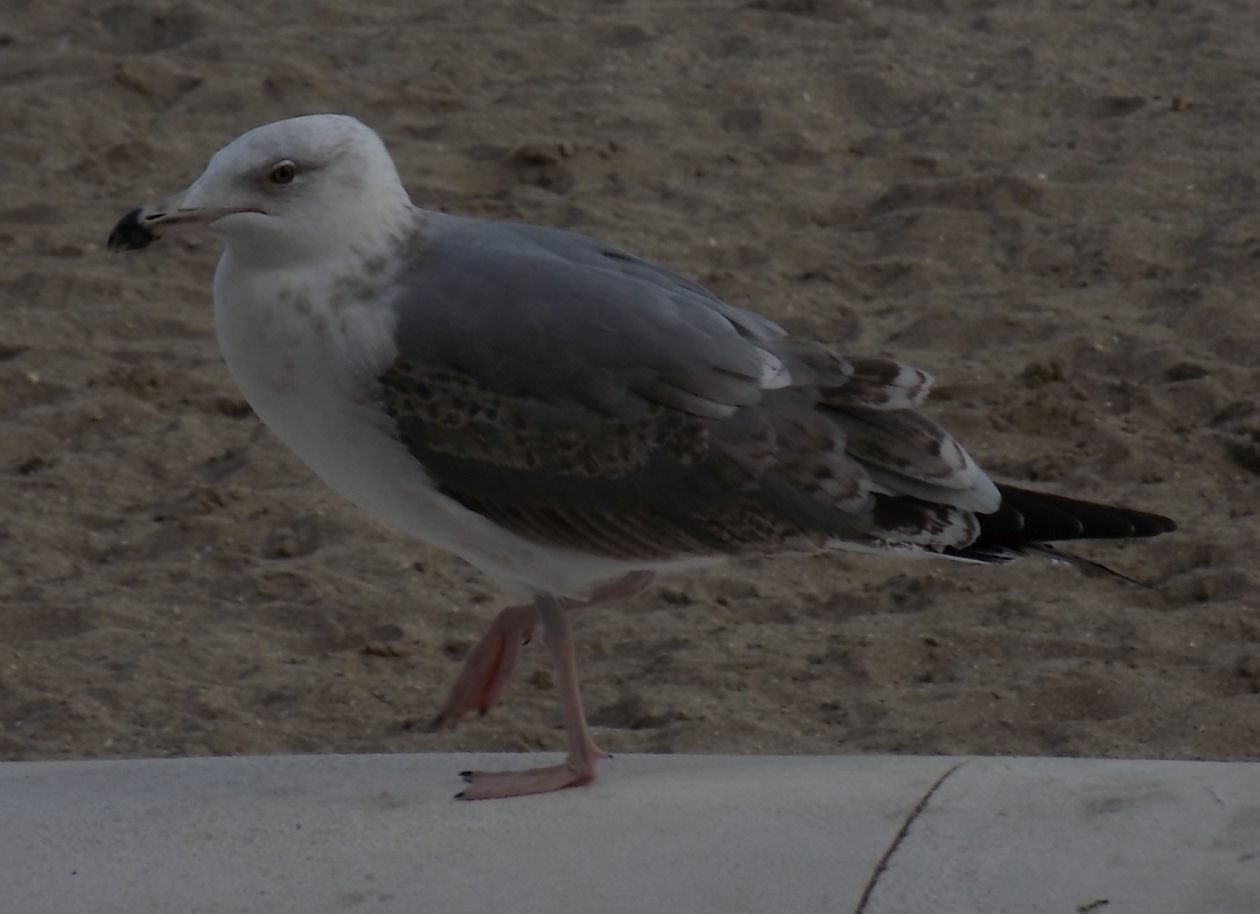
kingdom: Animalia
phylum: Chordata
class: Aves
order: Charadriiformes
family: Laridae
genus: Larus
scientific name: Larus michahellis
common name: Yellow-legged gull
